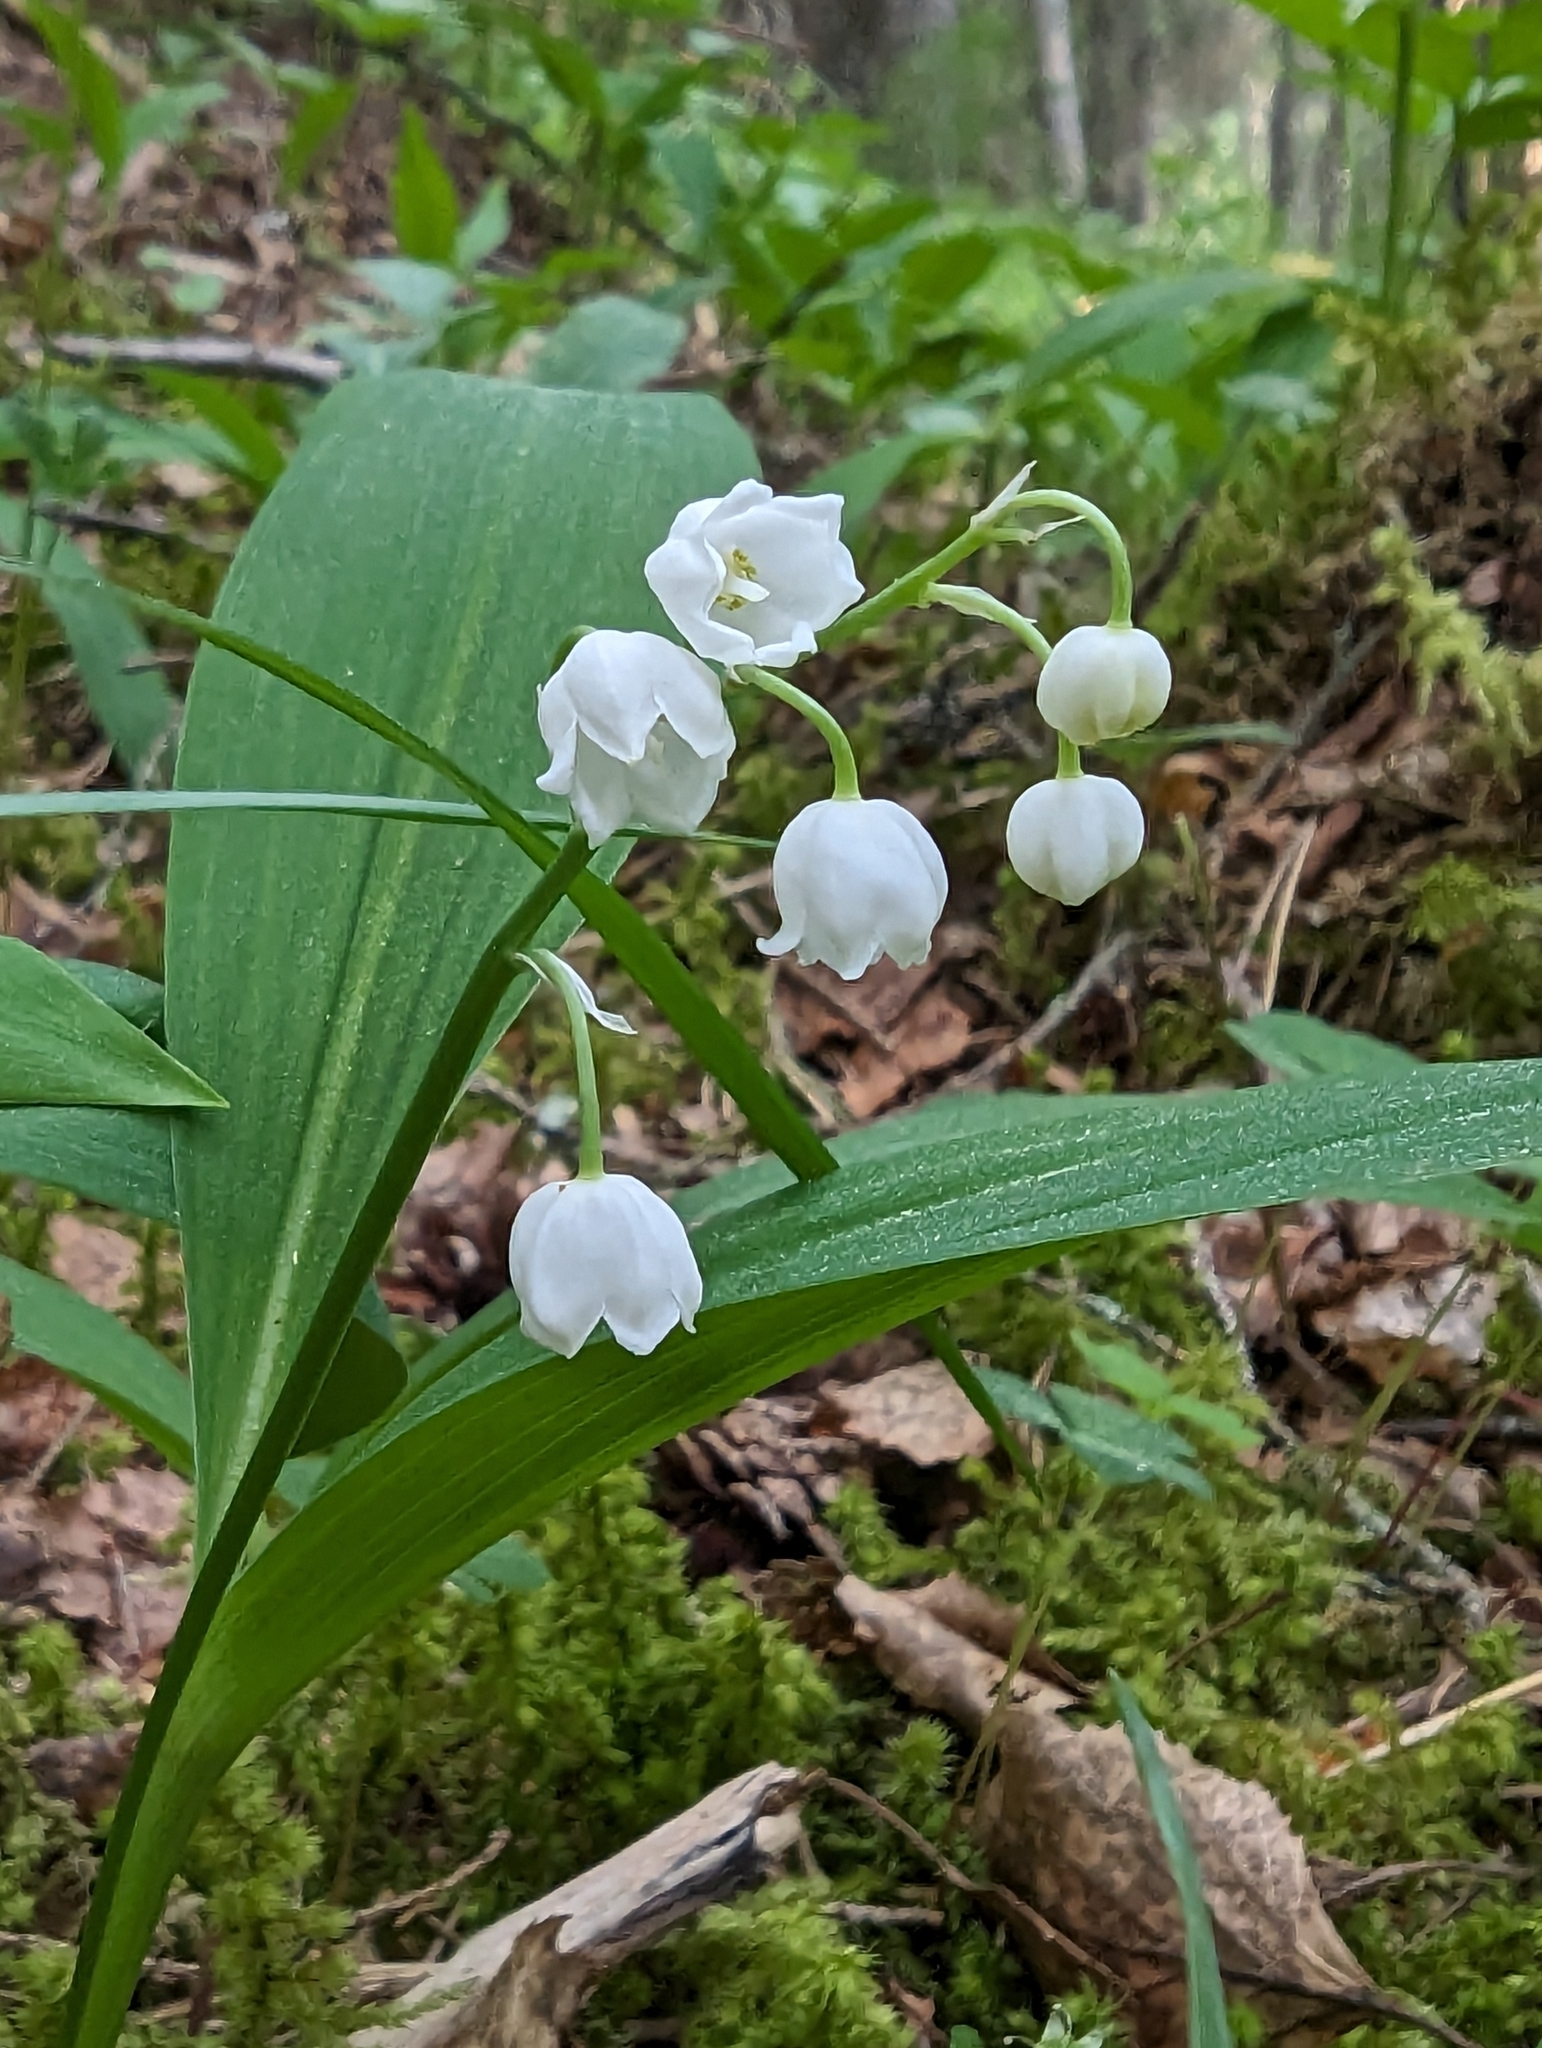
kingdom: Plantae
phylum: Tracheophyta
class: Liliopsida
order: Asparagales
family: Asparagaceae
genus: Convallaria
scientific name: Convallaria majalis
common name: Lily-of-the-valley
